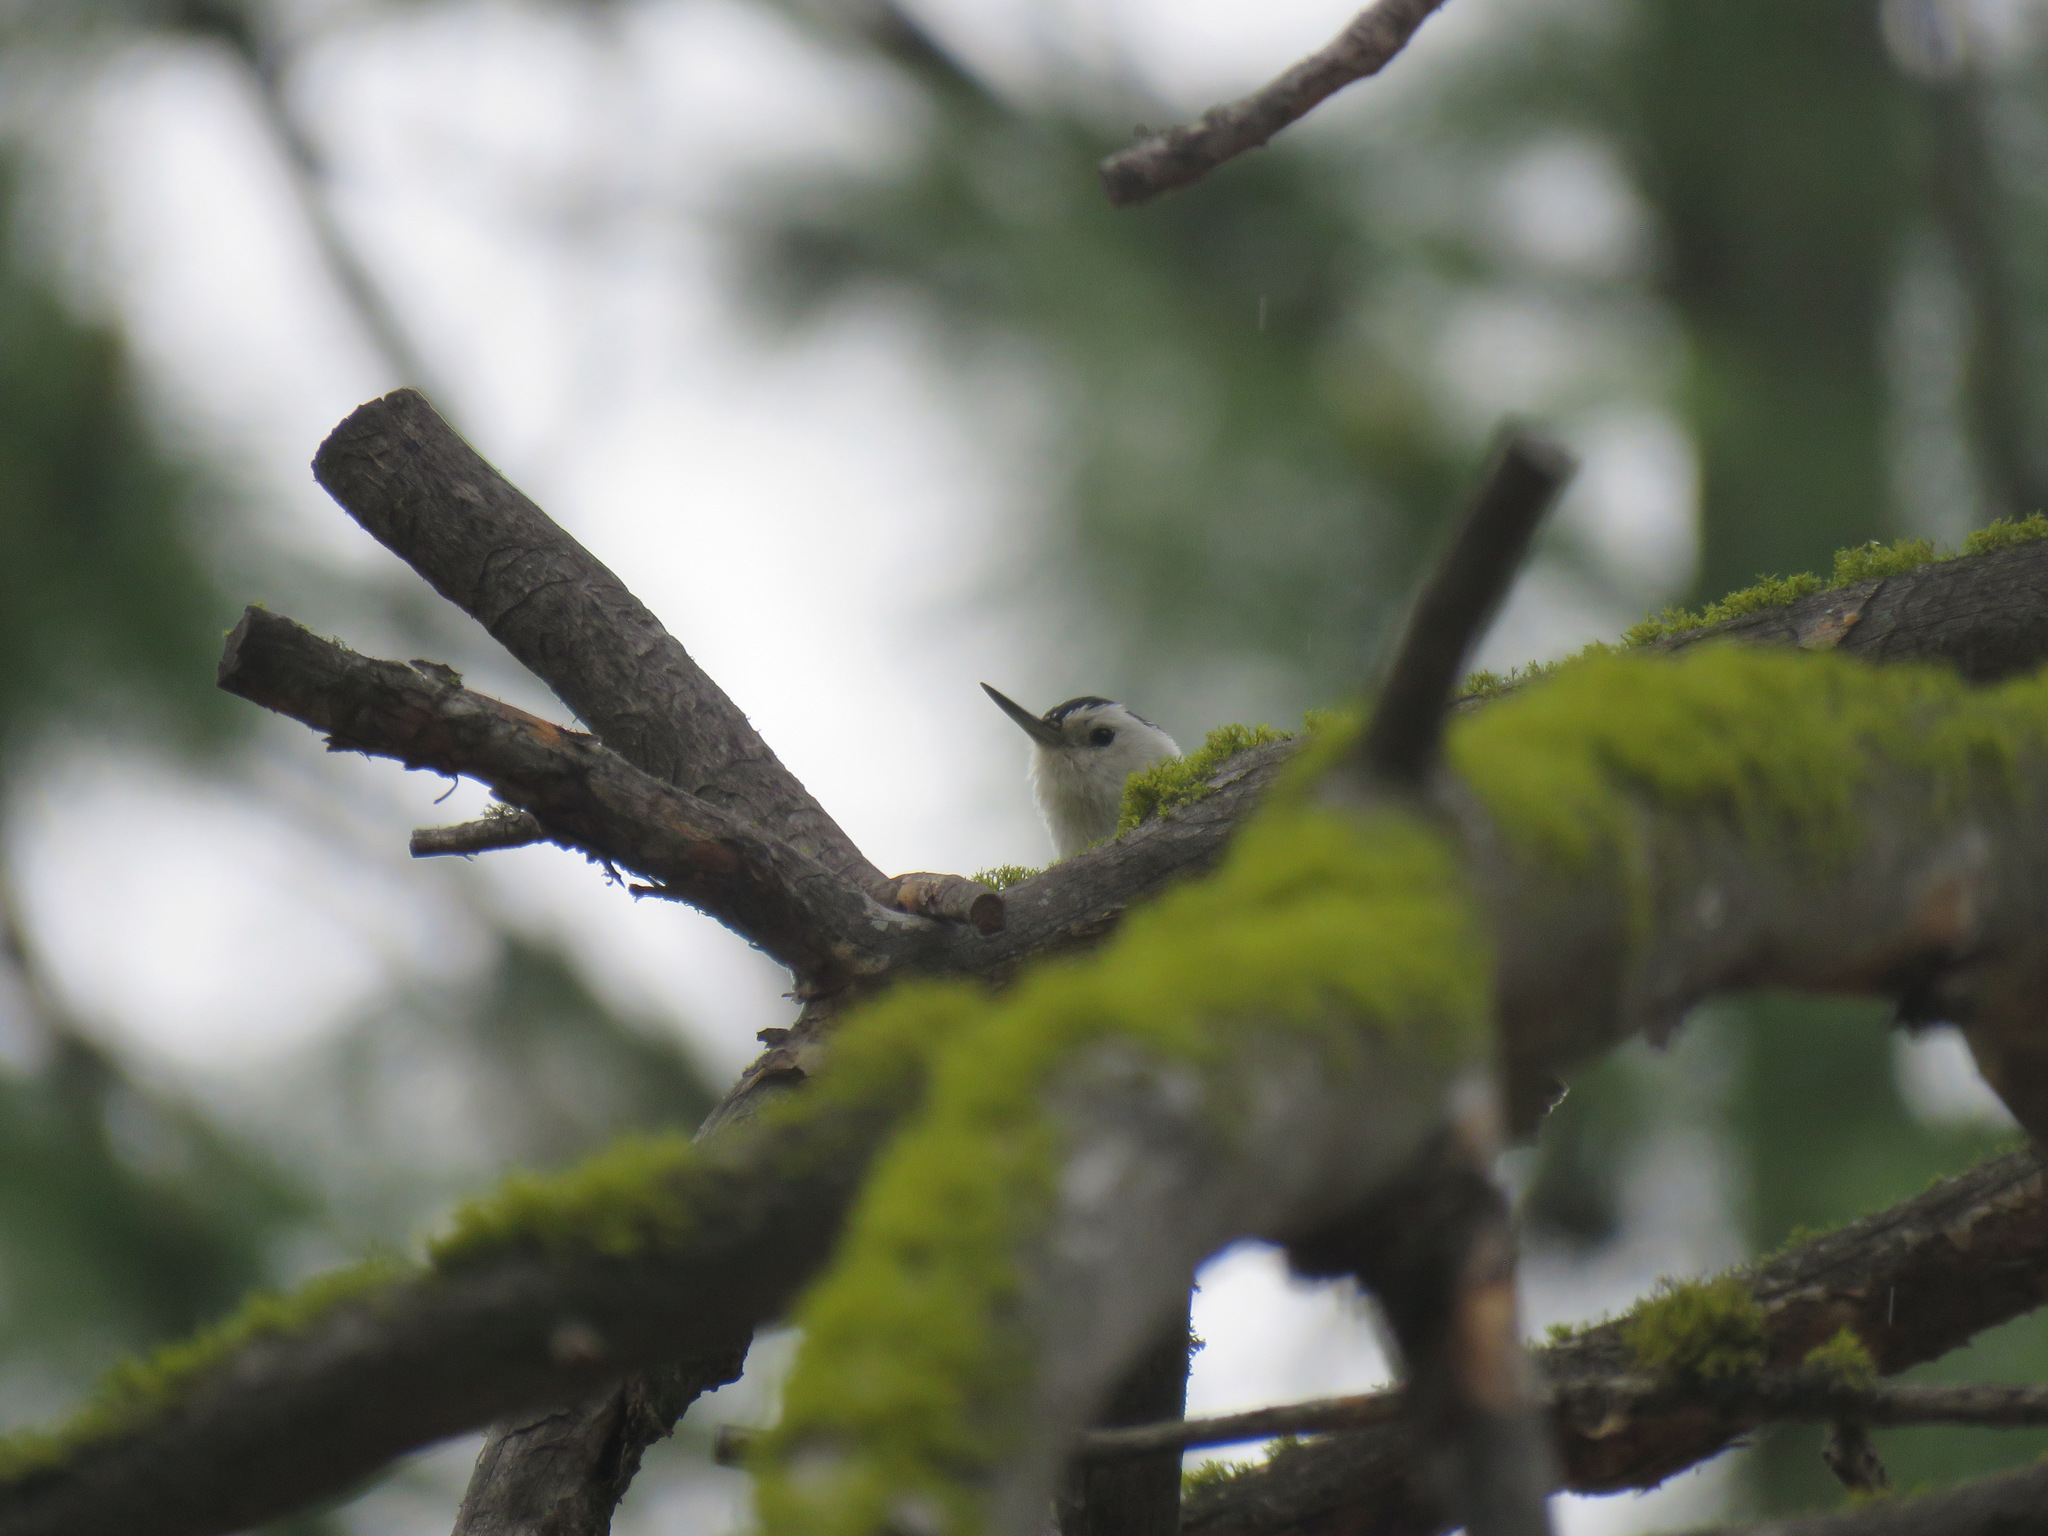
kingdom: Animalia
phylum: Chordata
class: Aves
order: Passeriformes
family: Sittidae
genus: Sitta
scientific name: Sitta carolinensis
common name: White-breasted nuthatch
